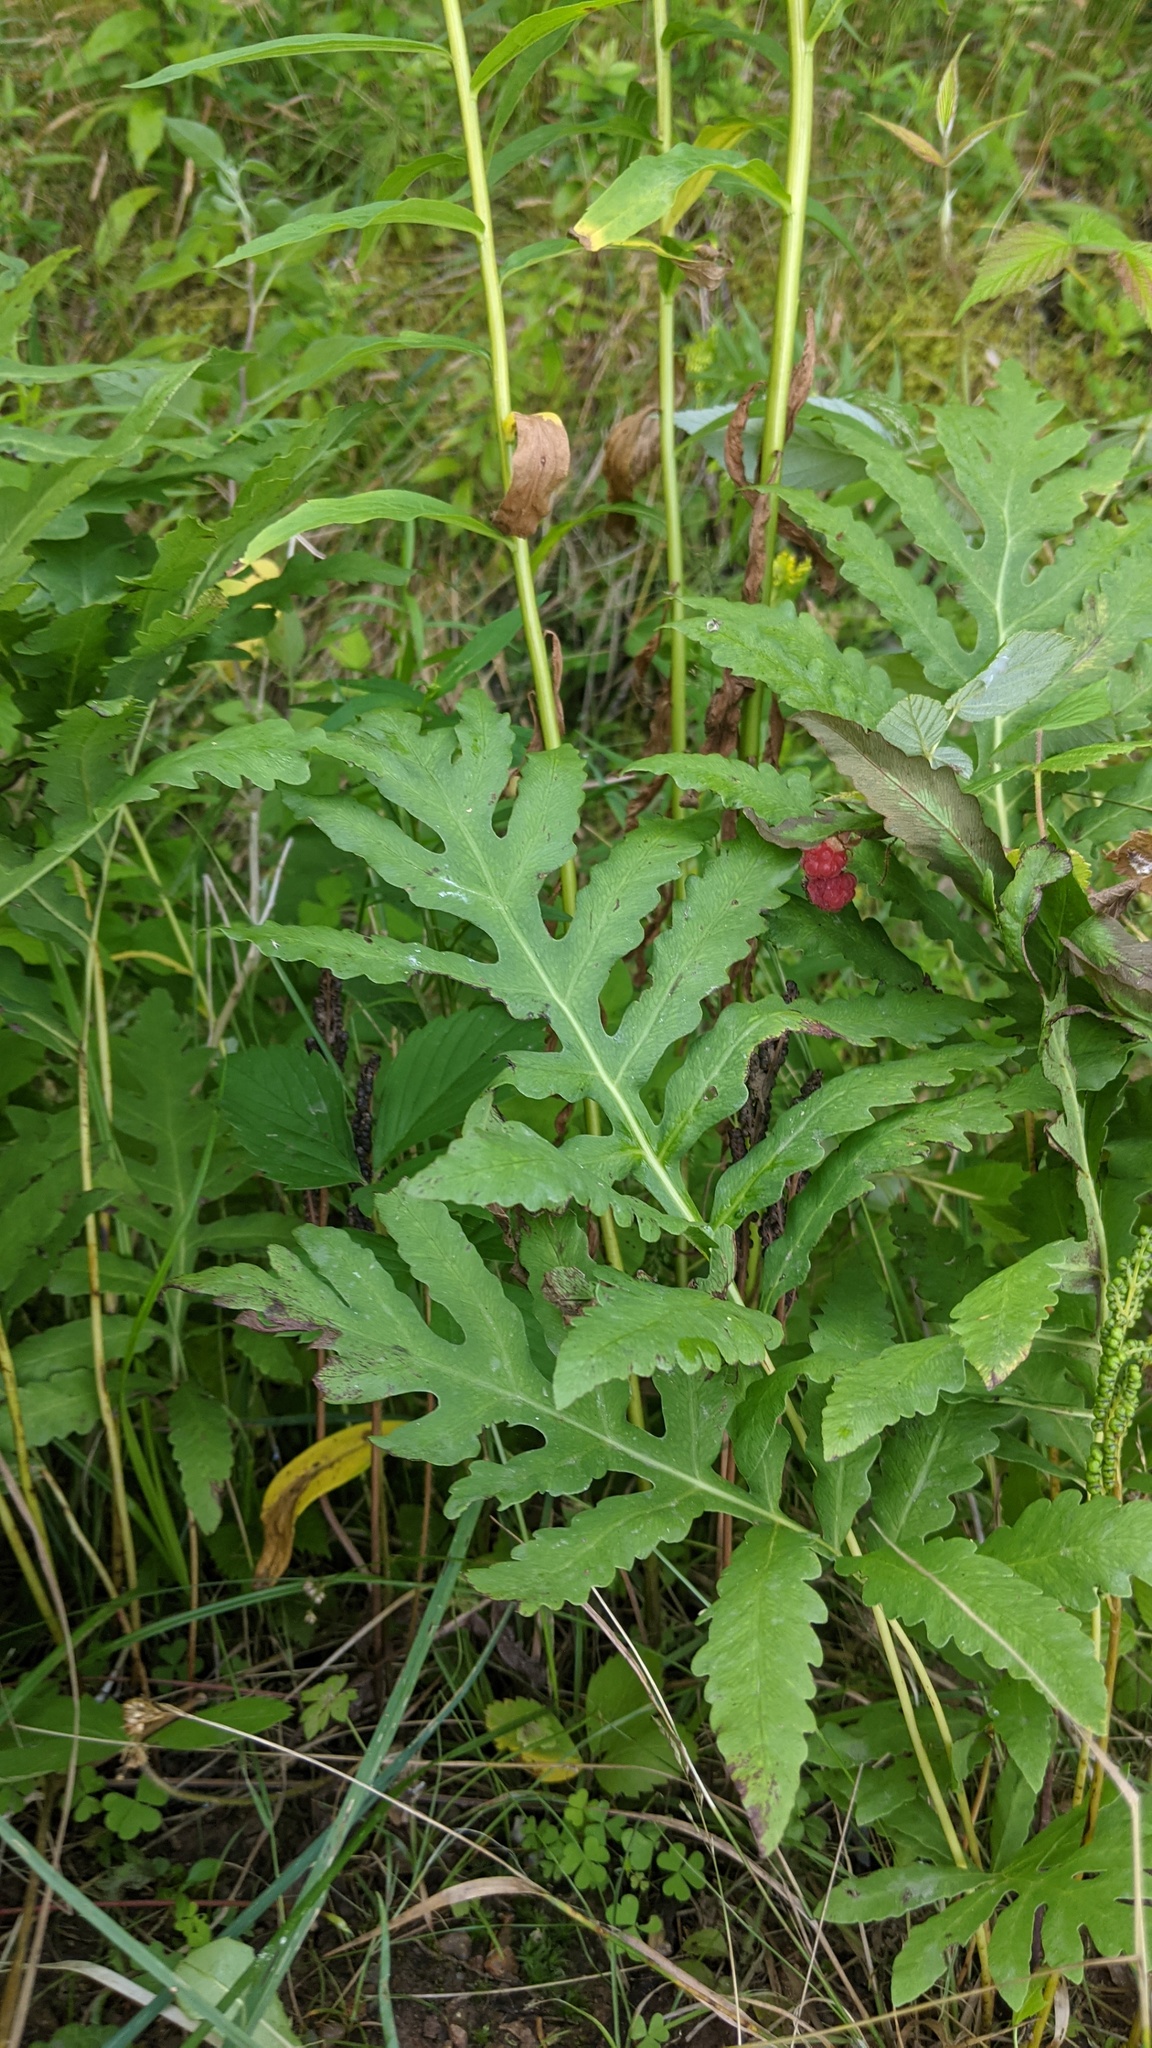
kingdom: Plantae
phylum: Tracheophyta
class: Polypodiopsida
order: Polypodiales
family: Onocleaceae
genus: Onoclea
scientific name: Onoclea sensibilis
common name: Sensitive fern
